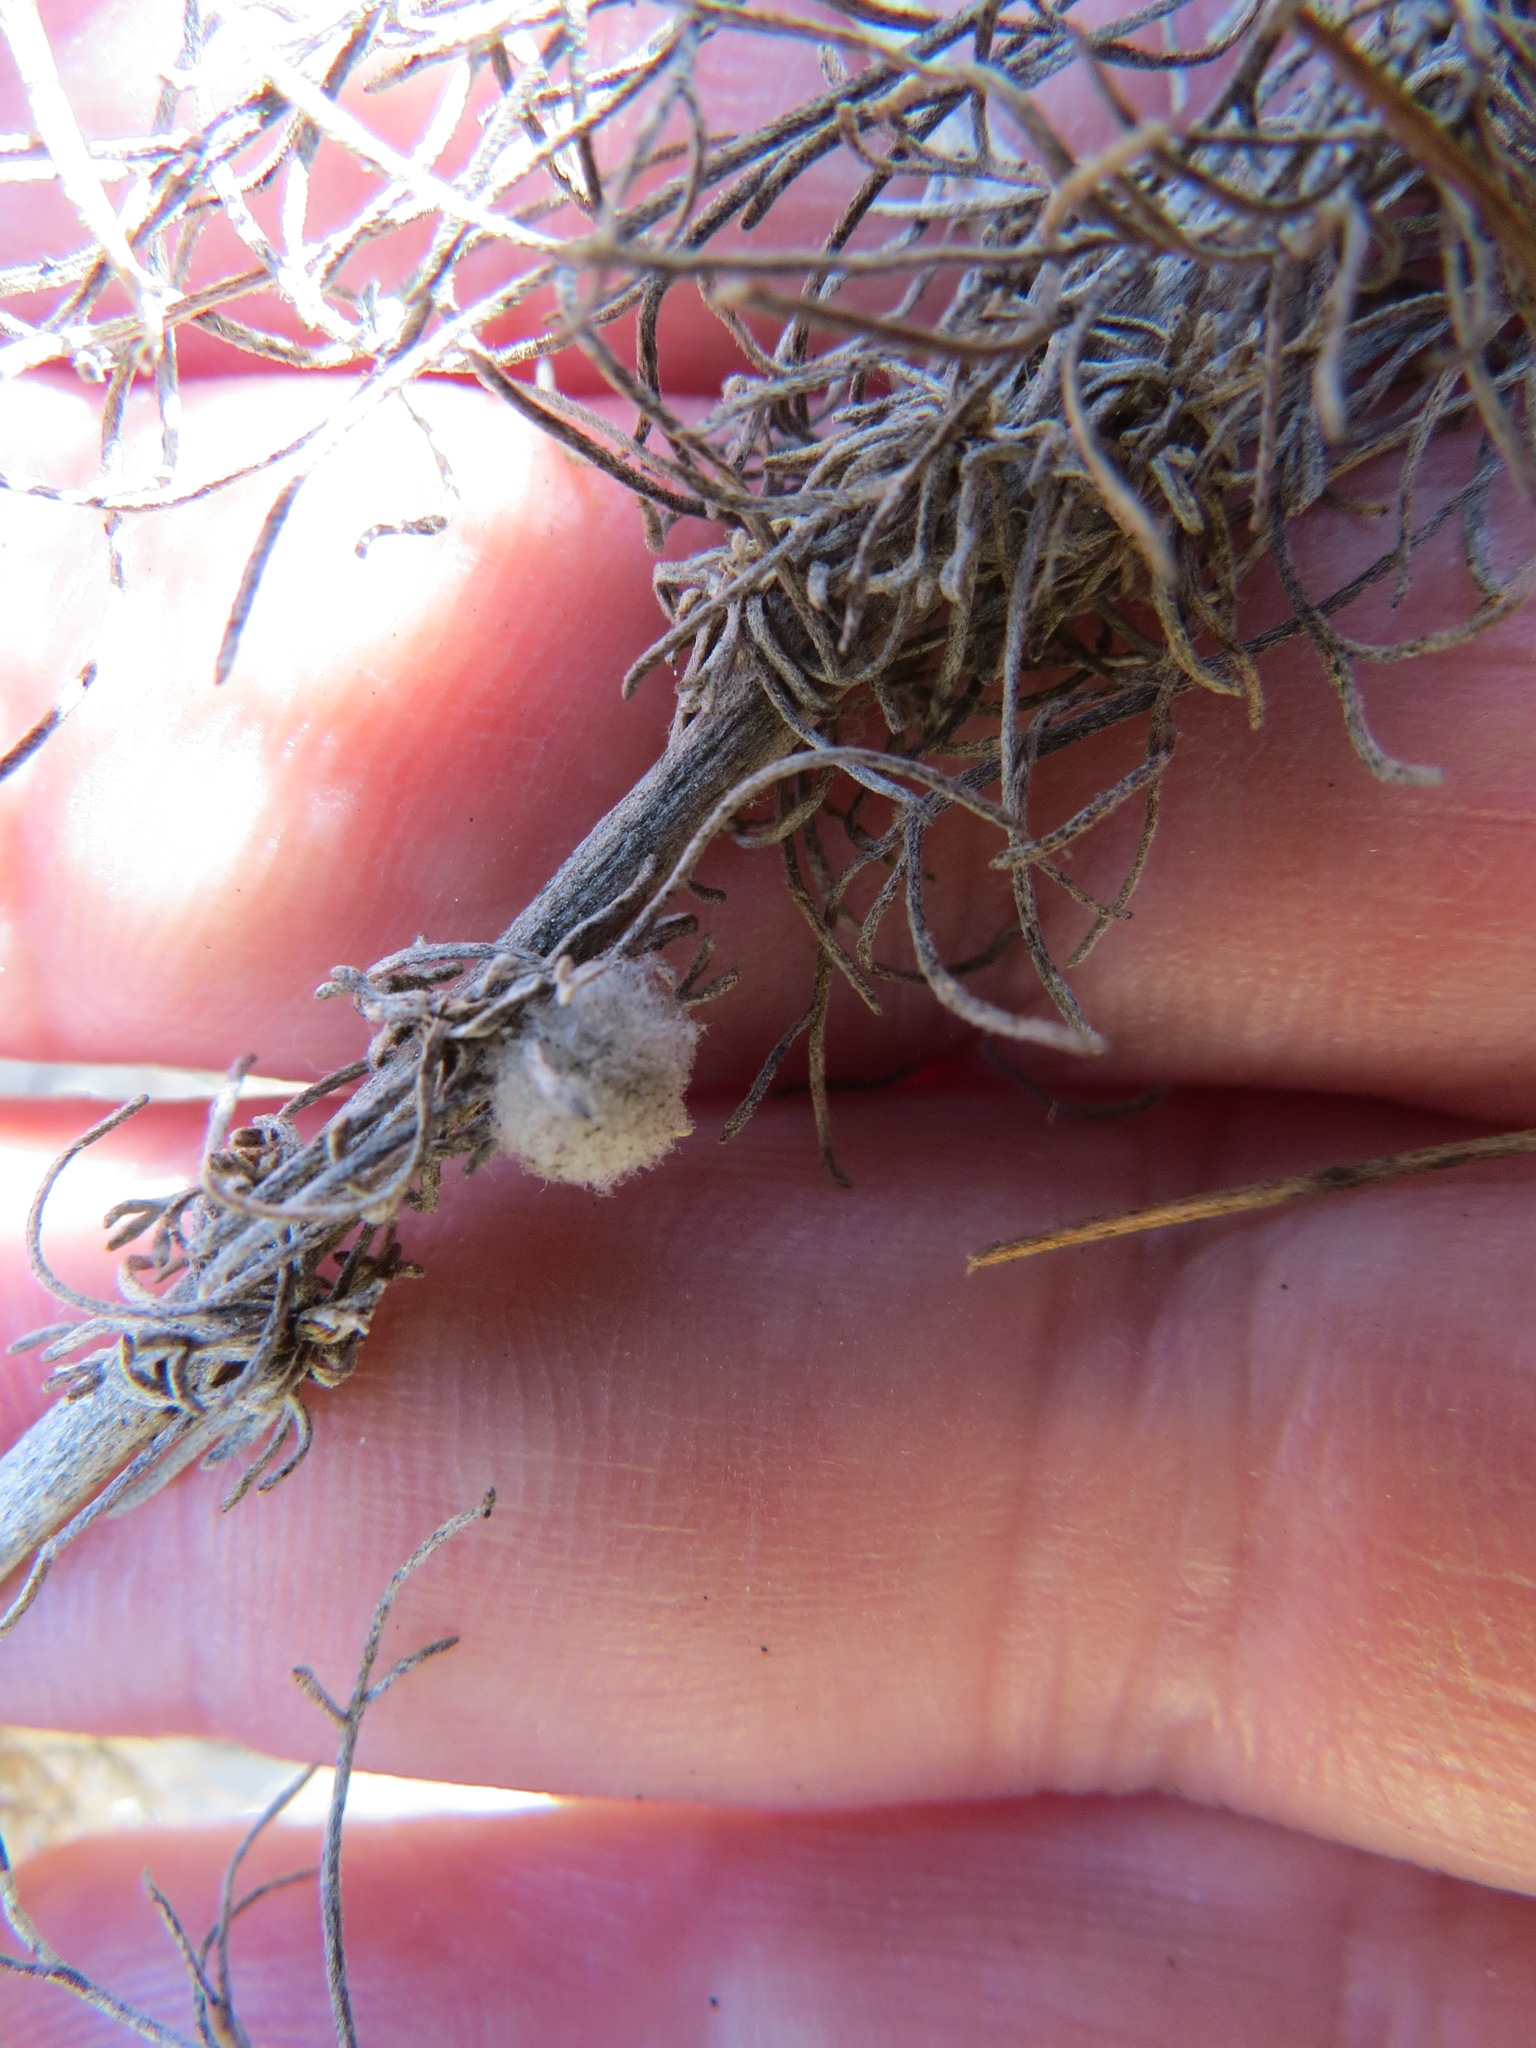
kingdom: Animalia
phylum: Arthropoda
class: Insecta
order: Diptera
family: Cecidomyiidae
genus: Rhopalomyia
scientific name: Rhopalomyia floccosa
